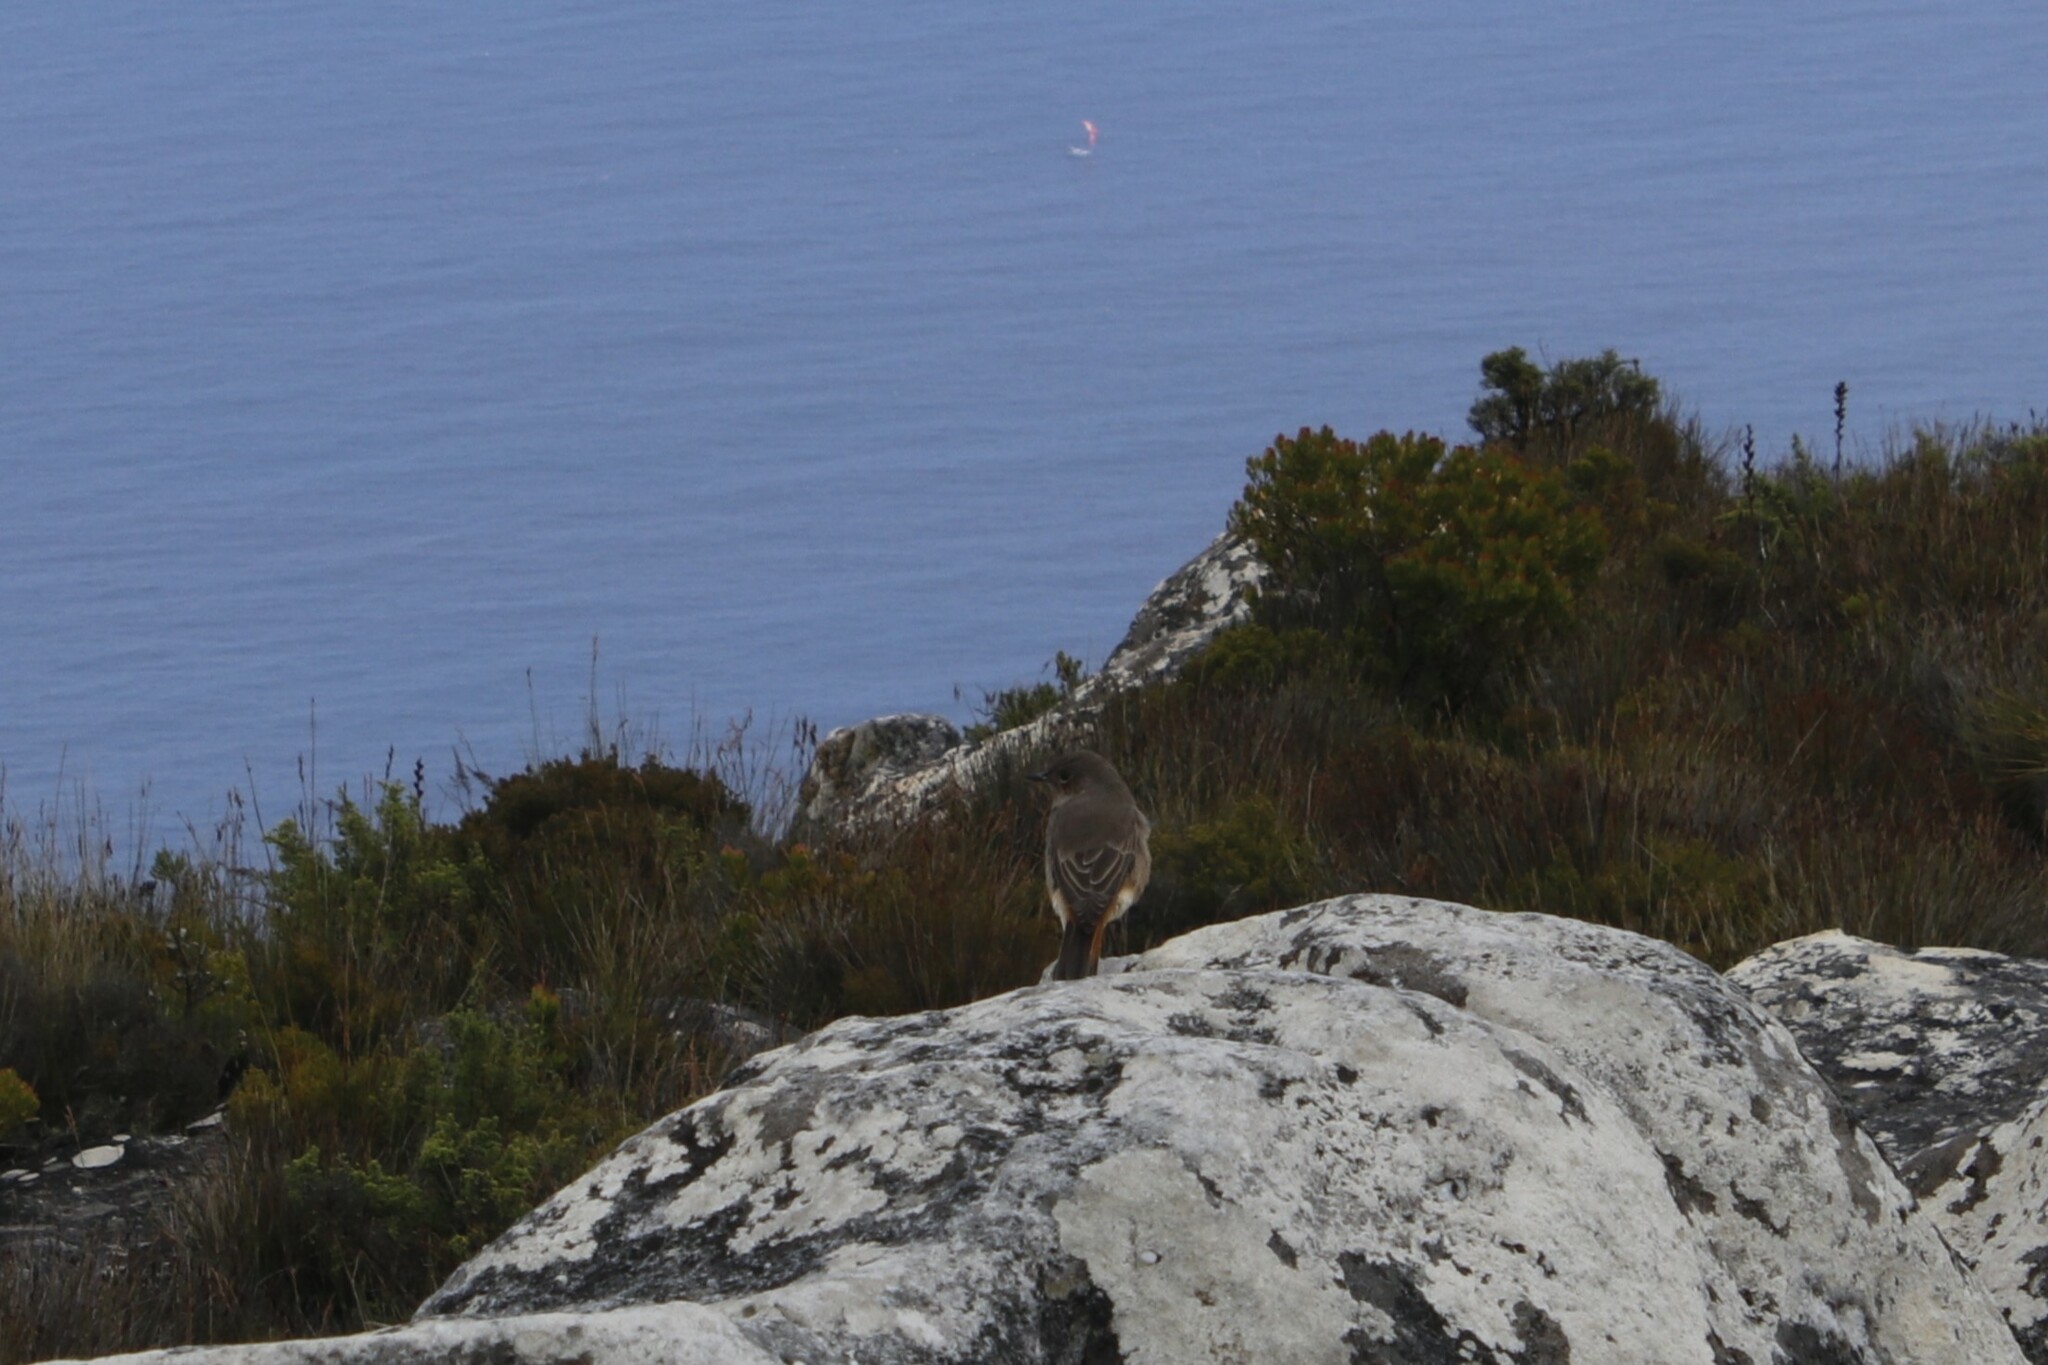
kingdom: Animalia
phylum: Chordata
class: Aves
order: Passeriformes
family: Muscicapidae
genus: Oenanthe
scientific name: Oenanthe familiaris
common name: Familiar chat
